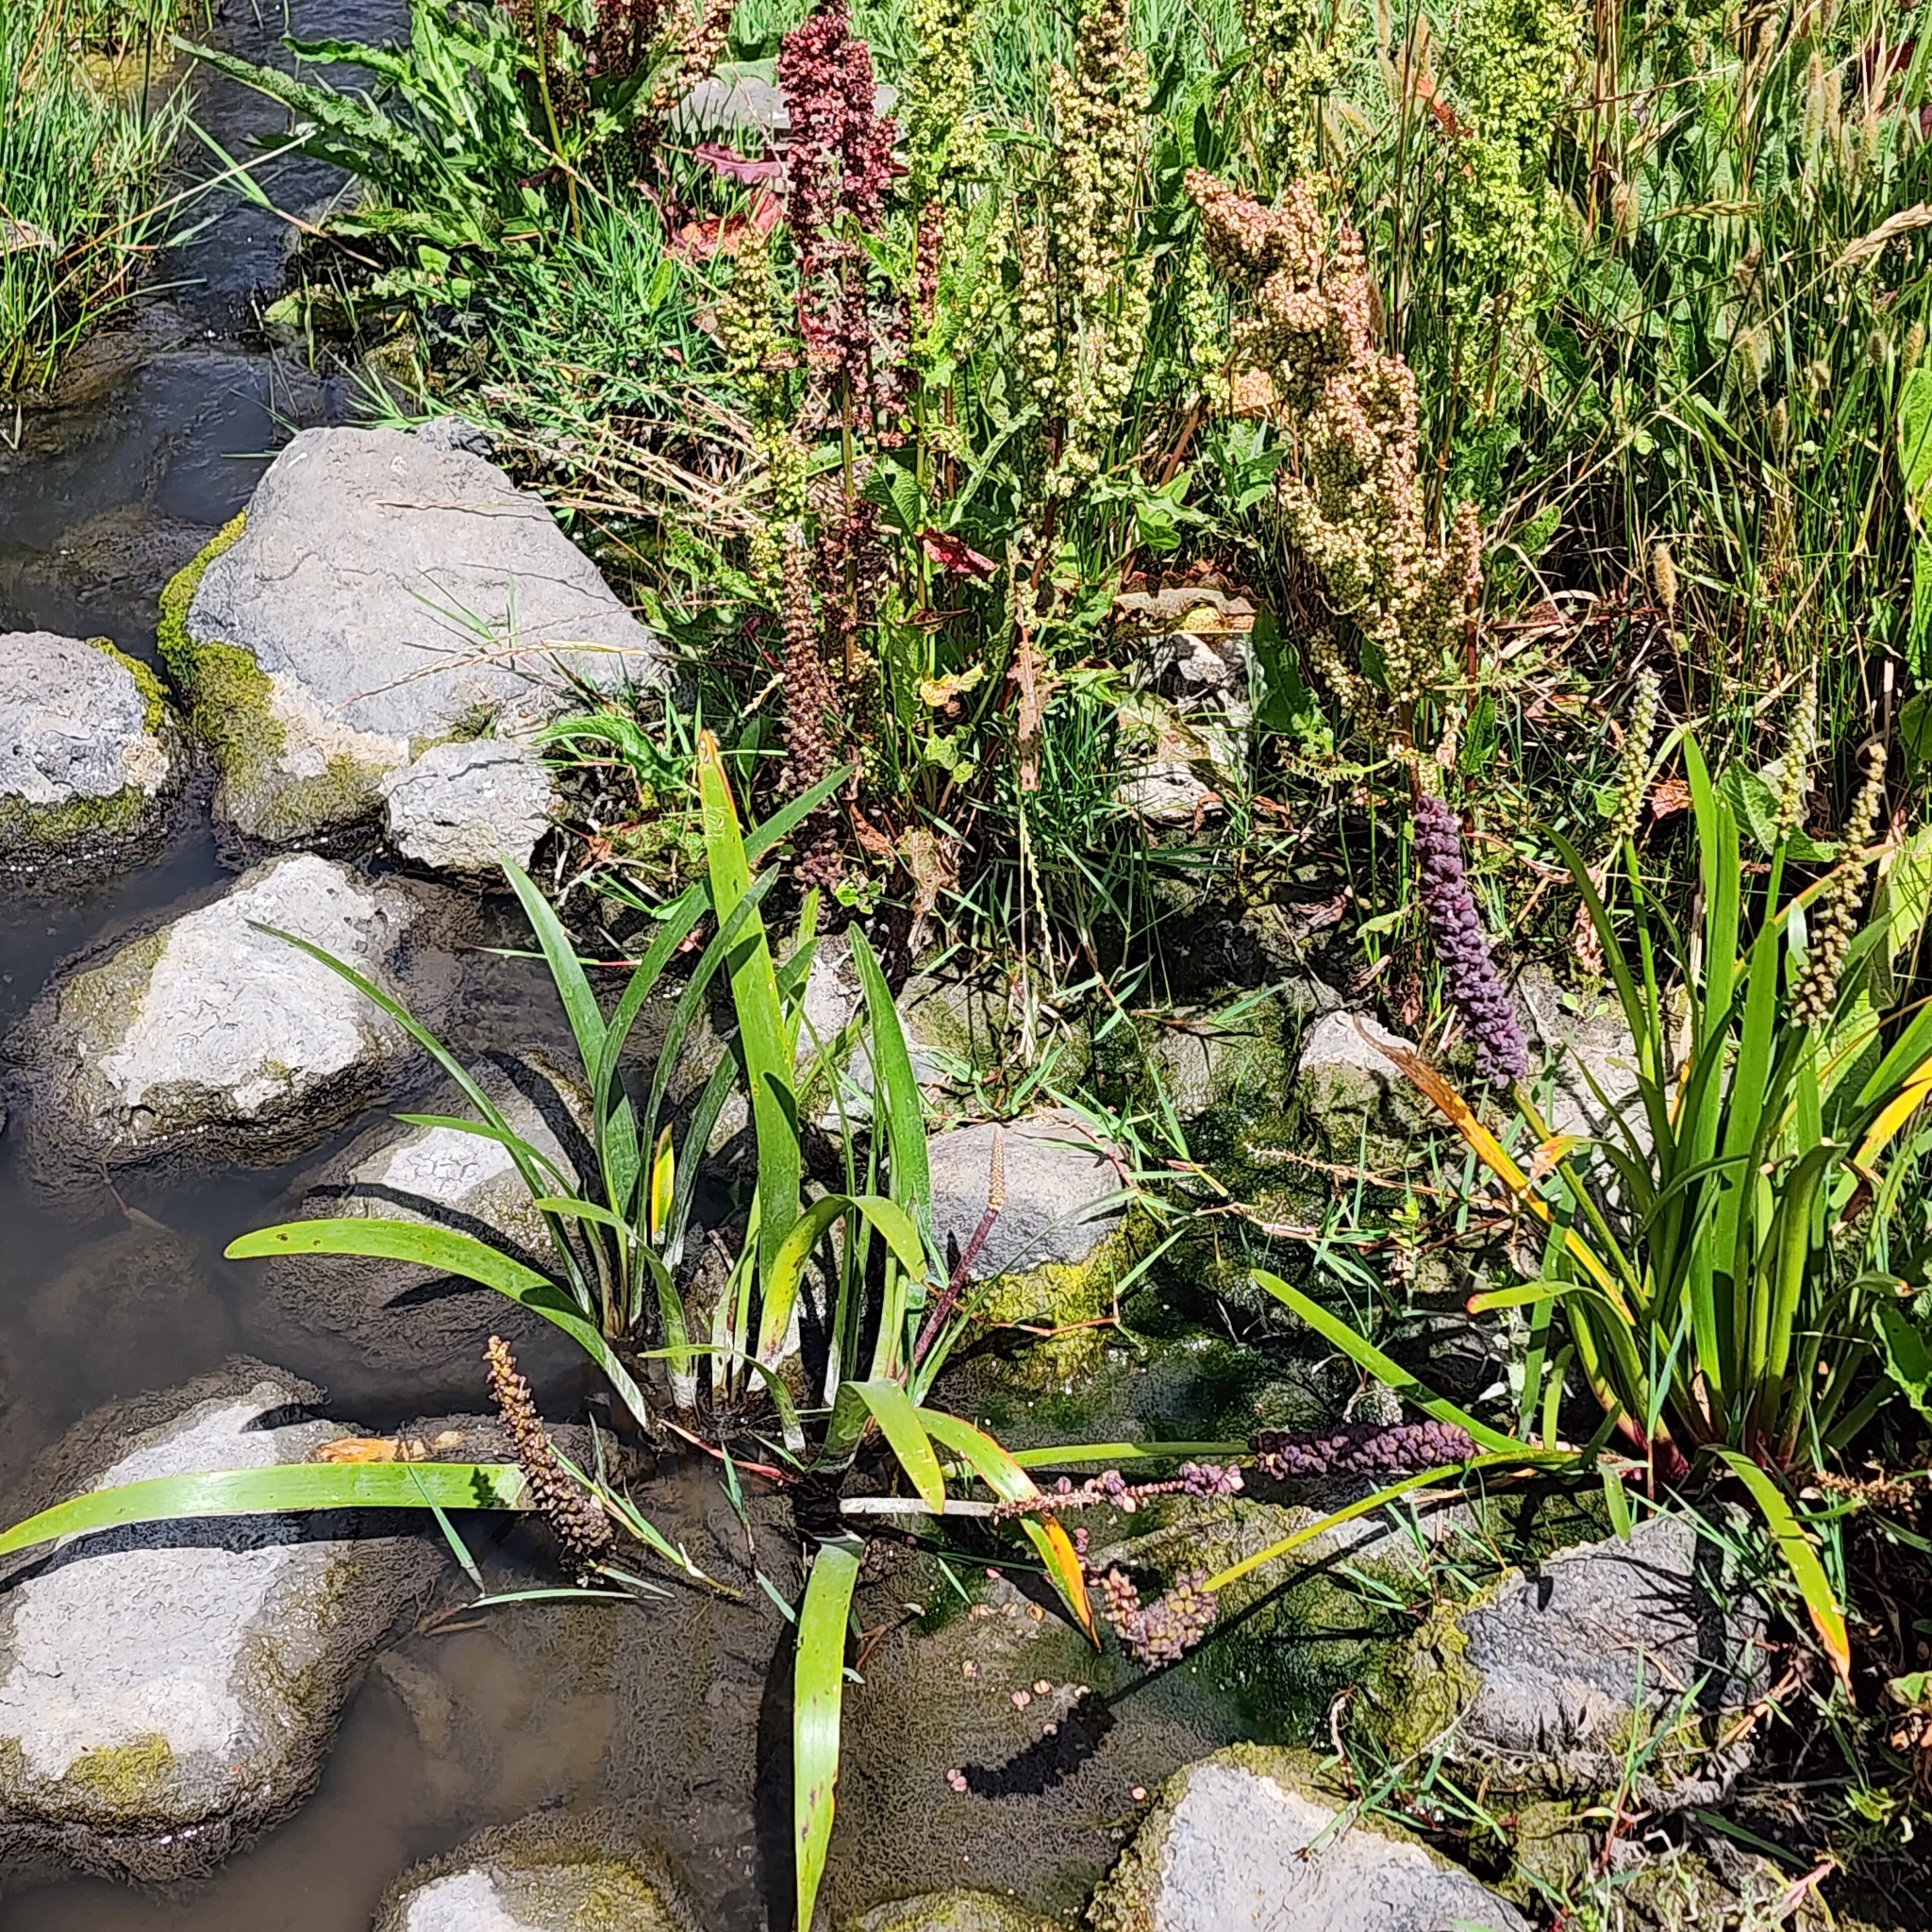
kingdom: Plantae
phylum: Tracheophyta
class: Liliopsida
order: Alismatales
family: Juncaginaceae
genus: Cycnogeton
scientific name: Cycnogeton procerum
